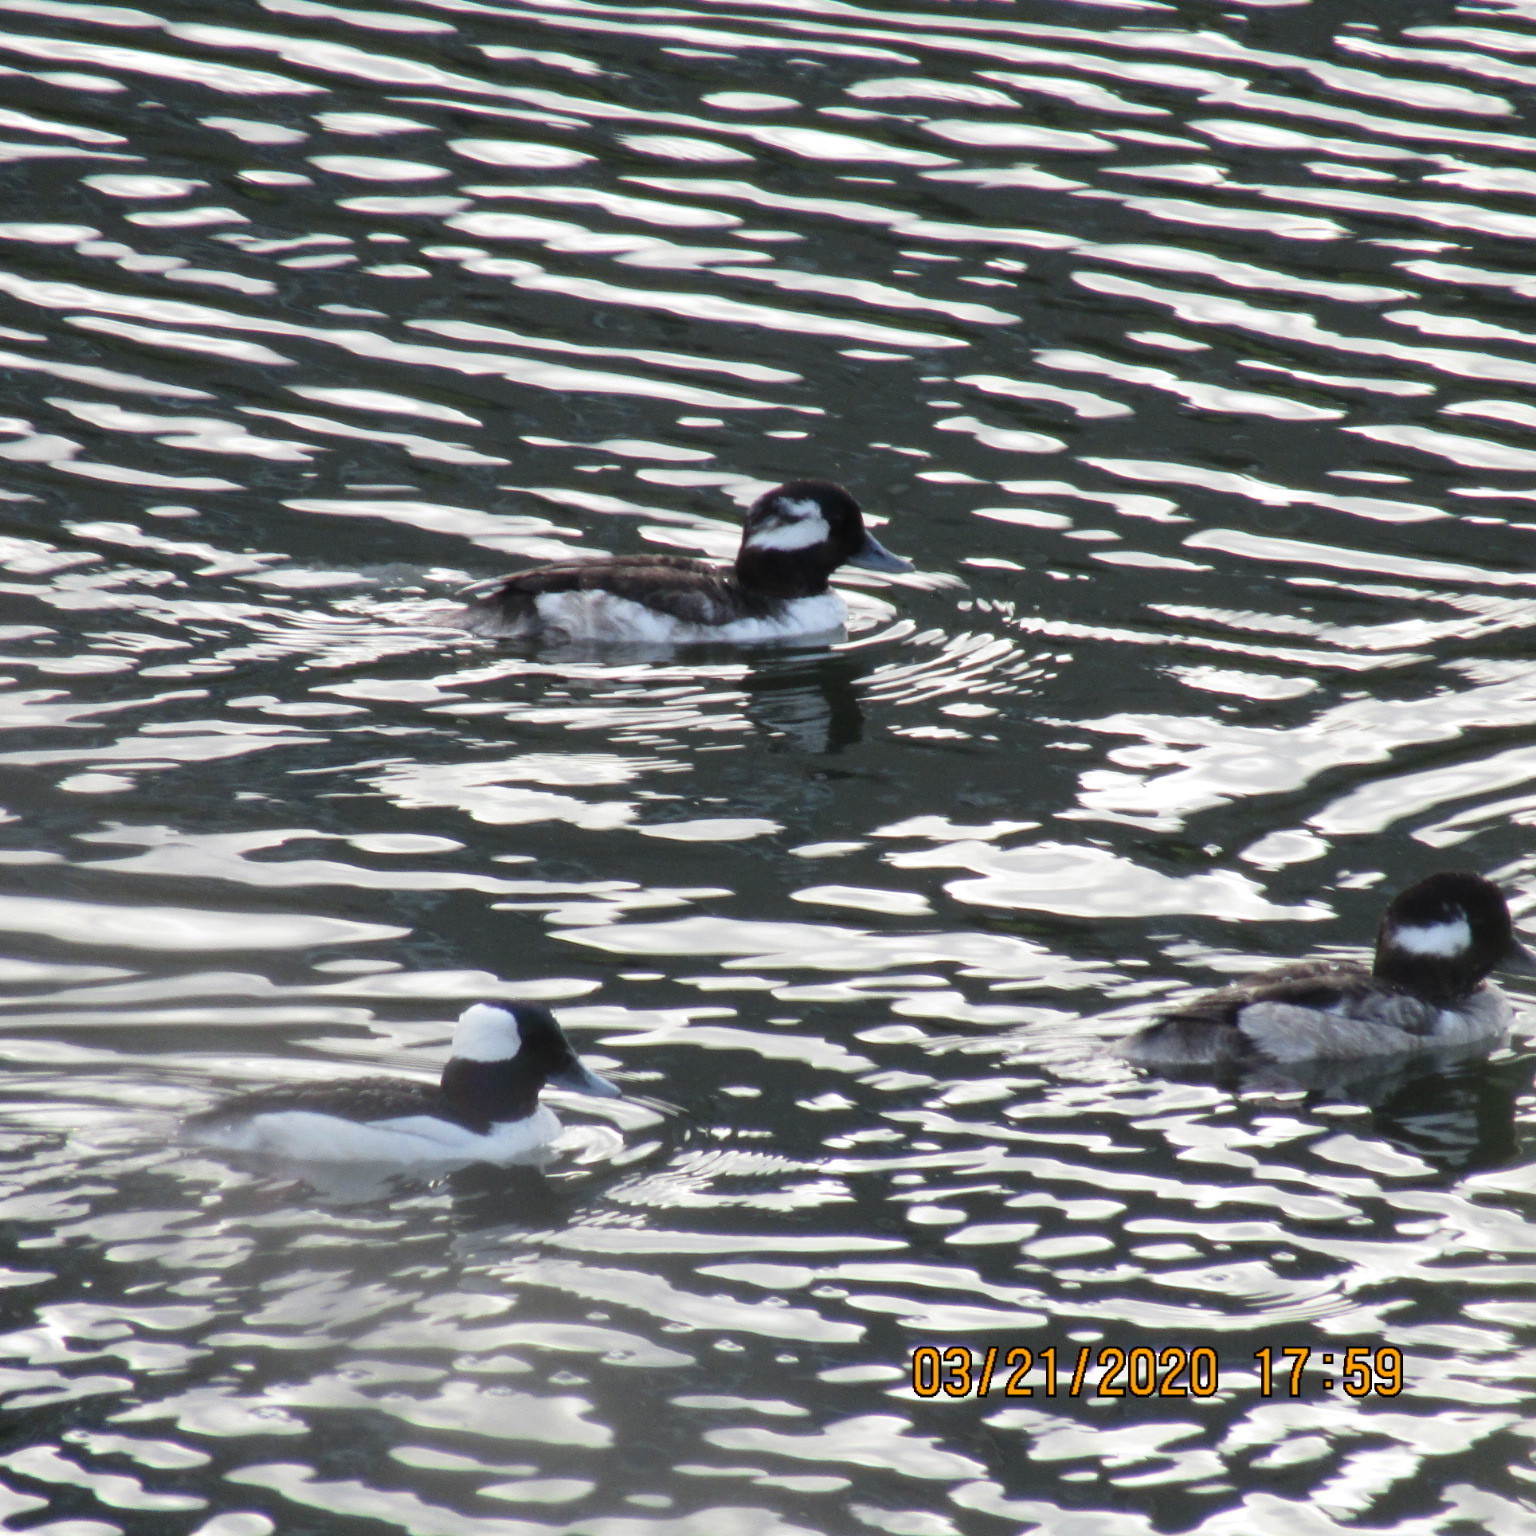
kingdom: Animalia
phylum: Chordata
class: Aves
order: Anseriformes
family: Anatidae
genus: Bucephala
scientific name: Bucephala albeola
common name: Bufflehead
